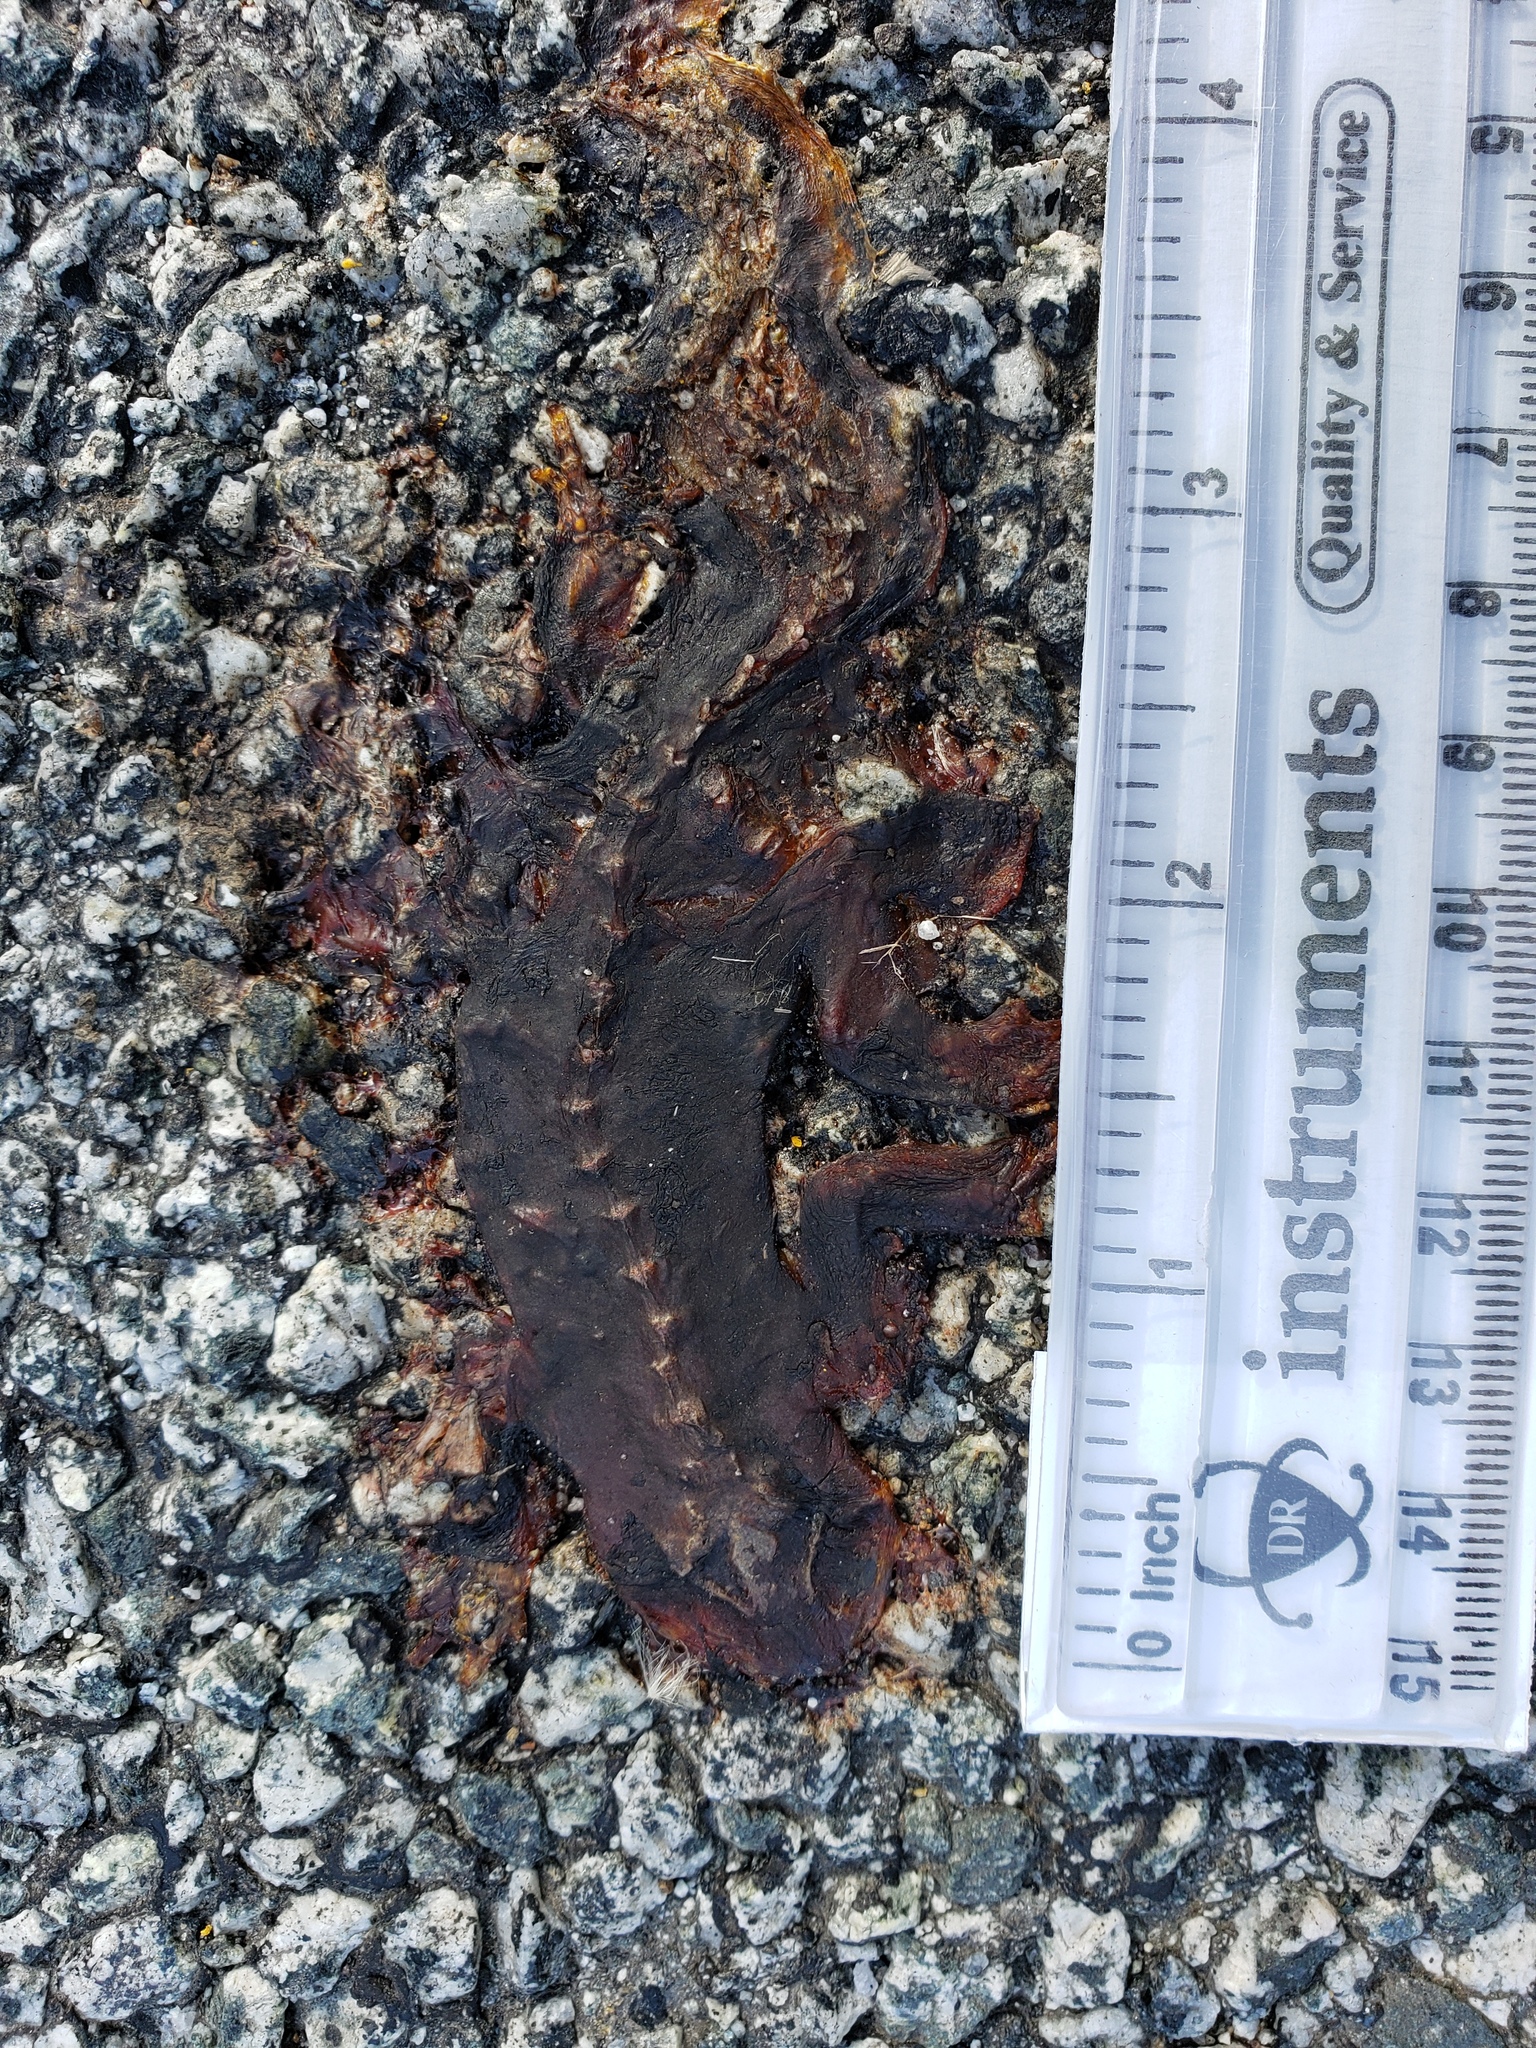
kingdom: Animalia
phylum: Chordata
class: Amphibia
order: Caudata
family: Salamandridae
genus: Taricha
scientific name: Taricha
